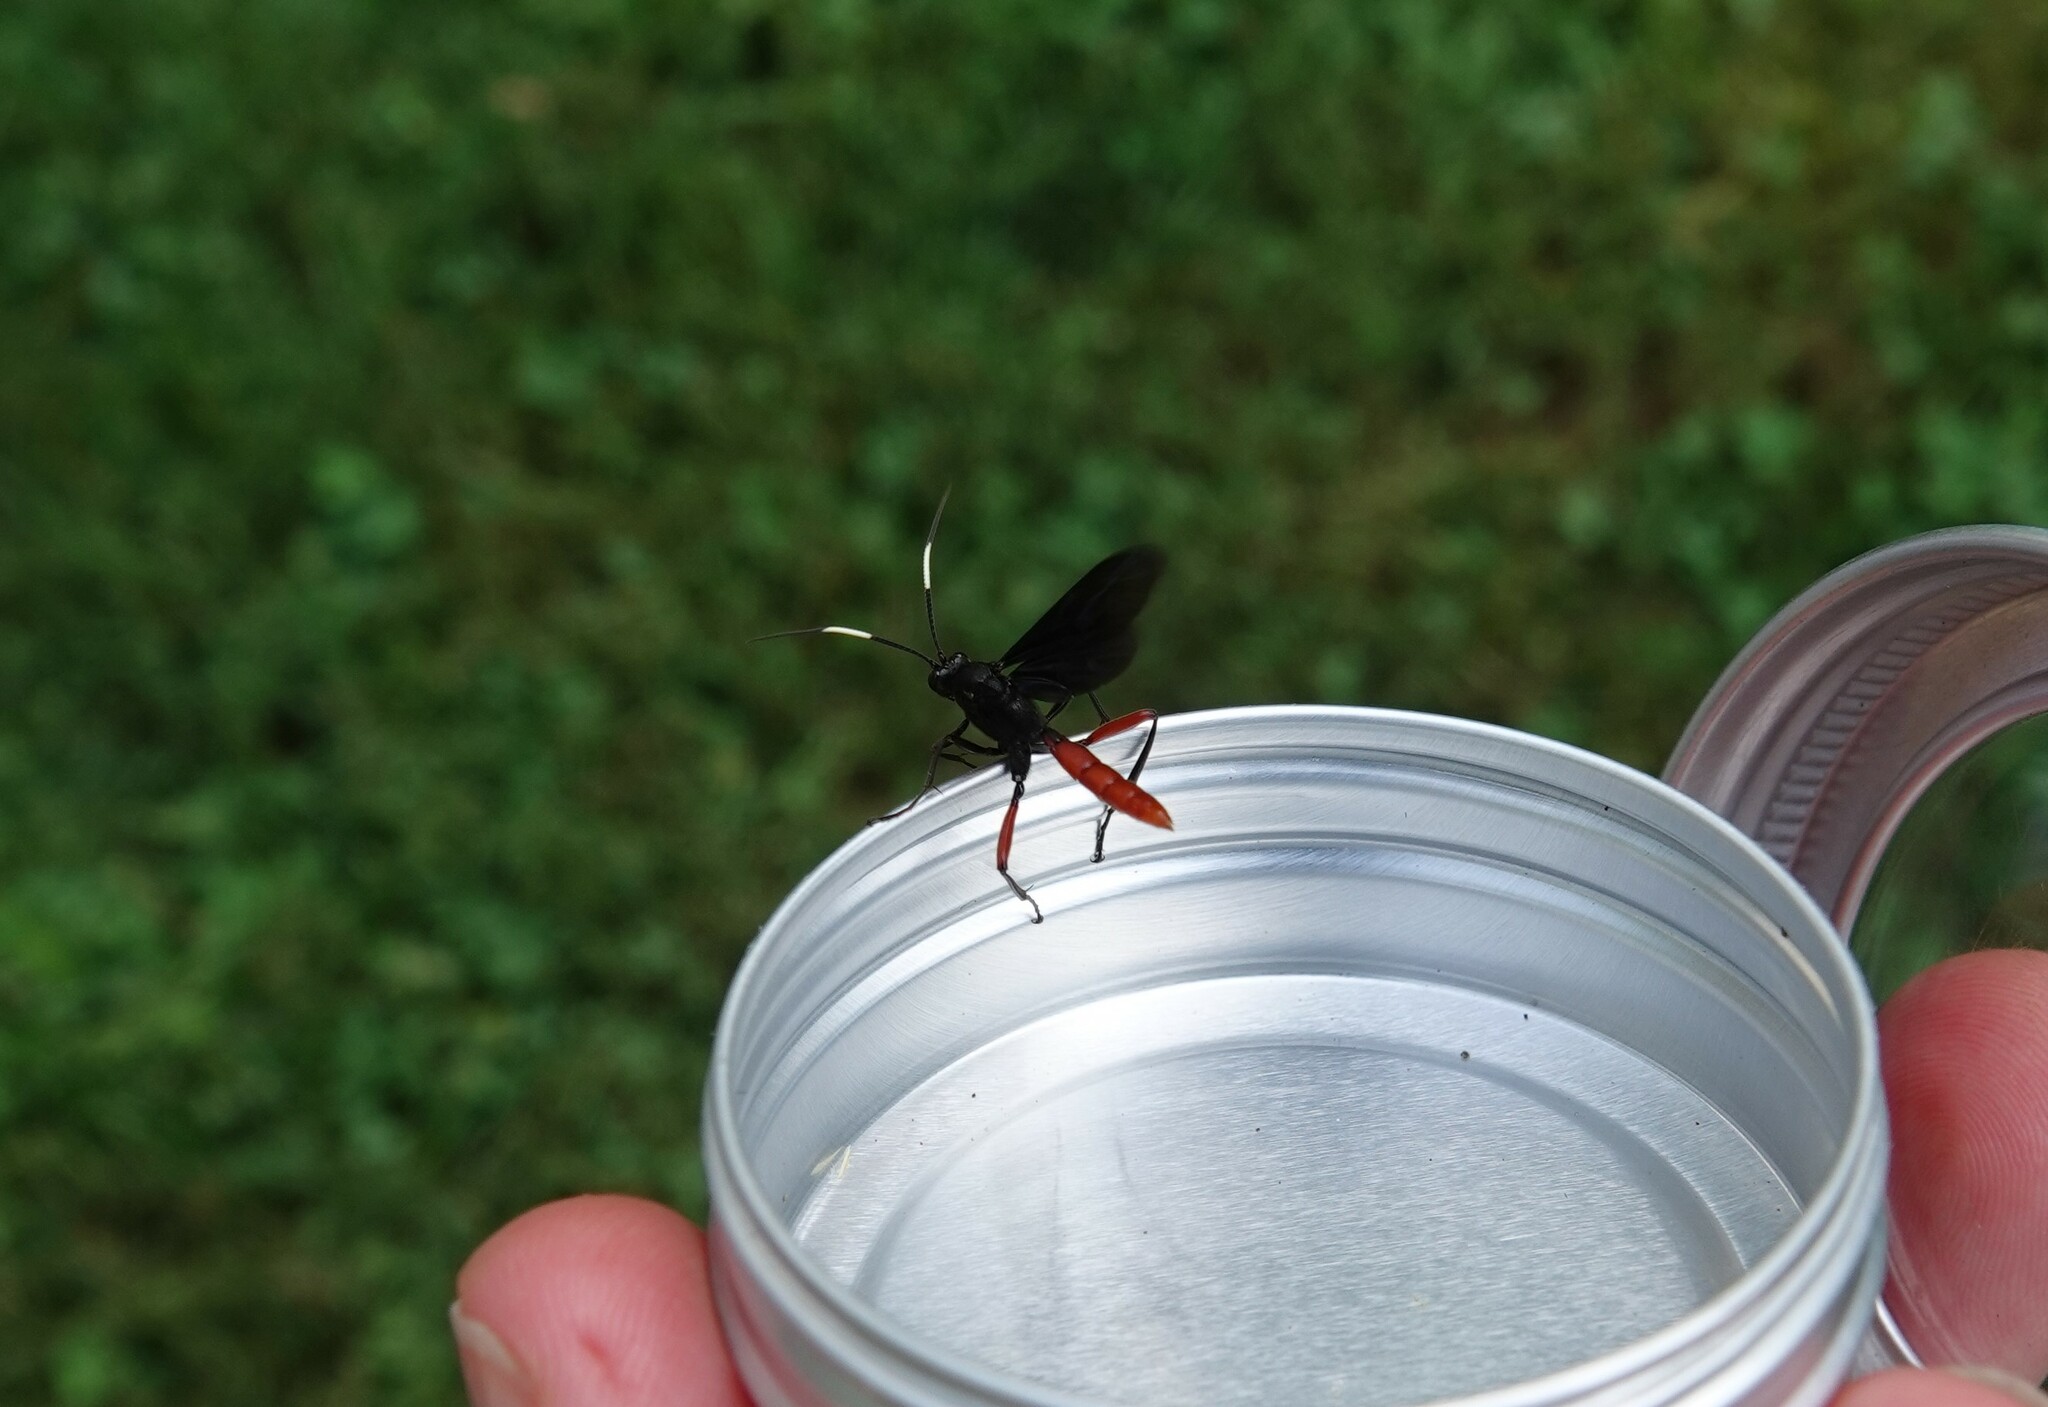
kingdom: Animalia
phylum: Arthropoda
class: Insecta
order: Hymenoptera
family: Ichneumonidae
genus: Limonethe
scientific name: Limonethe maurator
